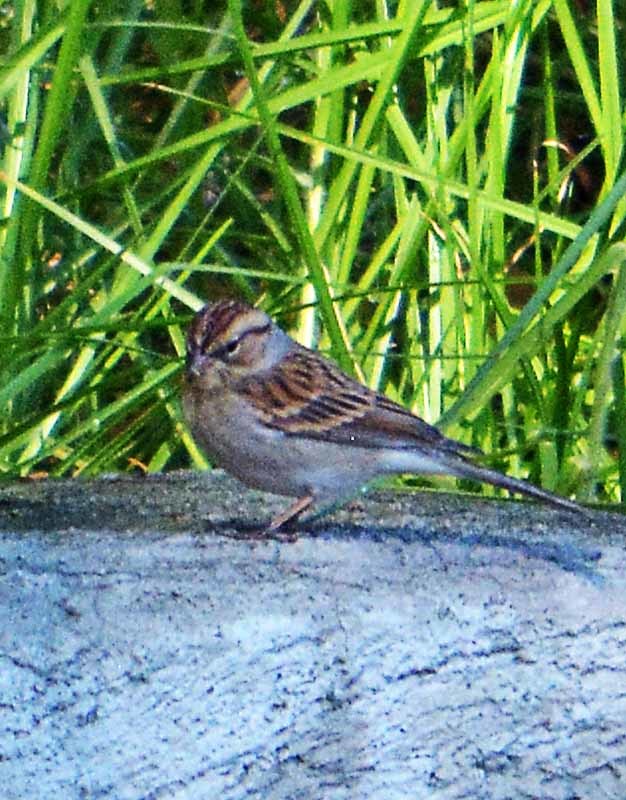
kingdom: Animalia
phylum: Chordata
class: Aves
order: Passeriformes
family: Passerellidae
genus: Spizella
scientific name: Spizella passerina
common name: Chipping sparrow
